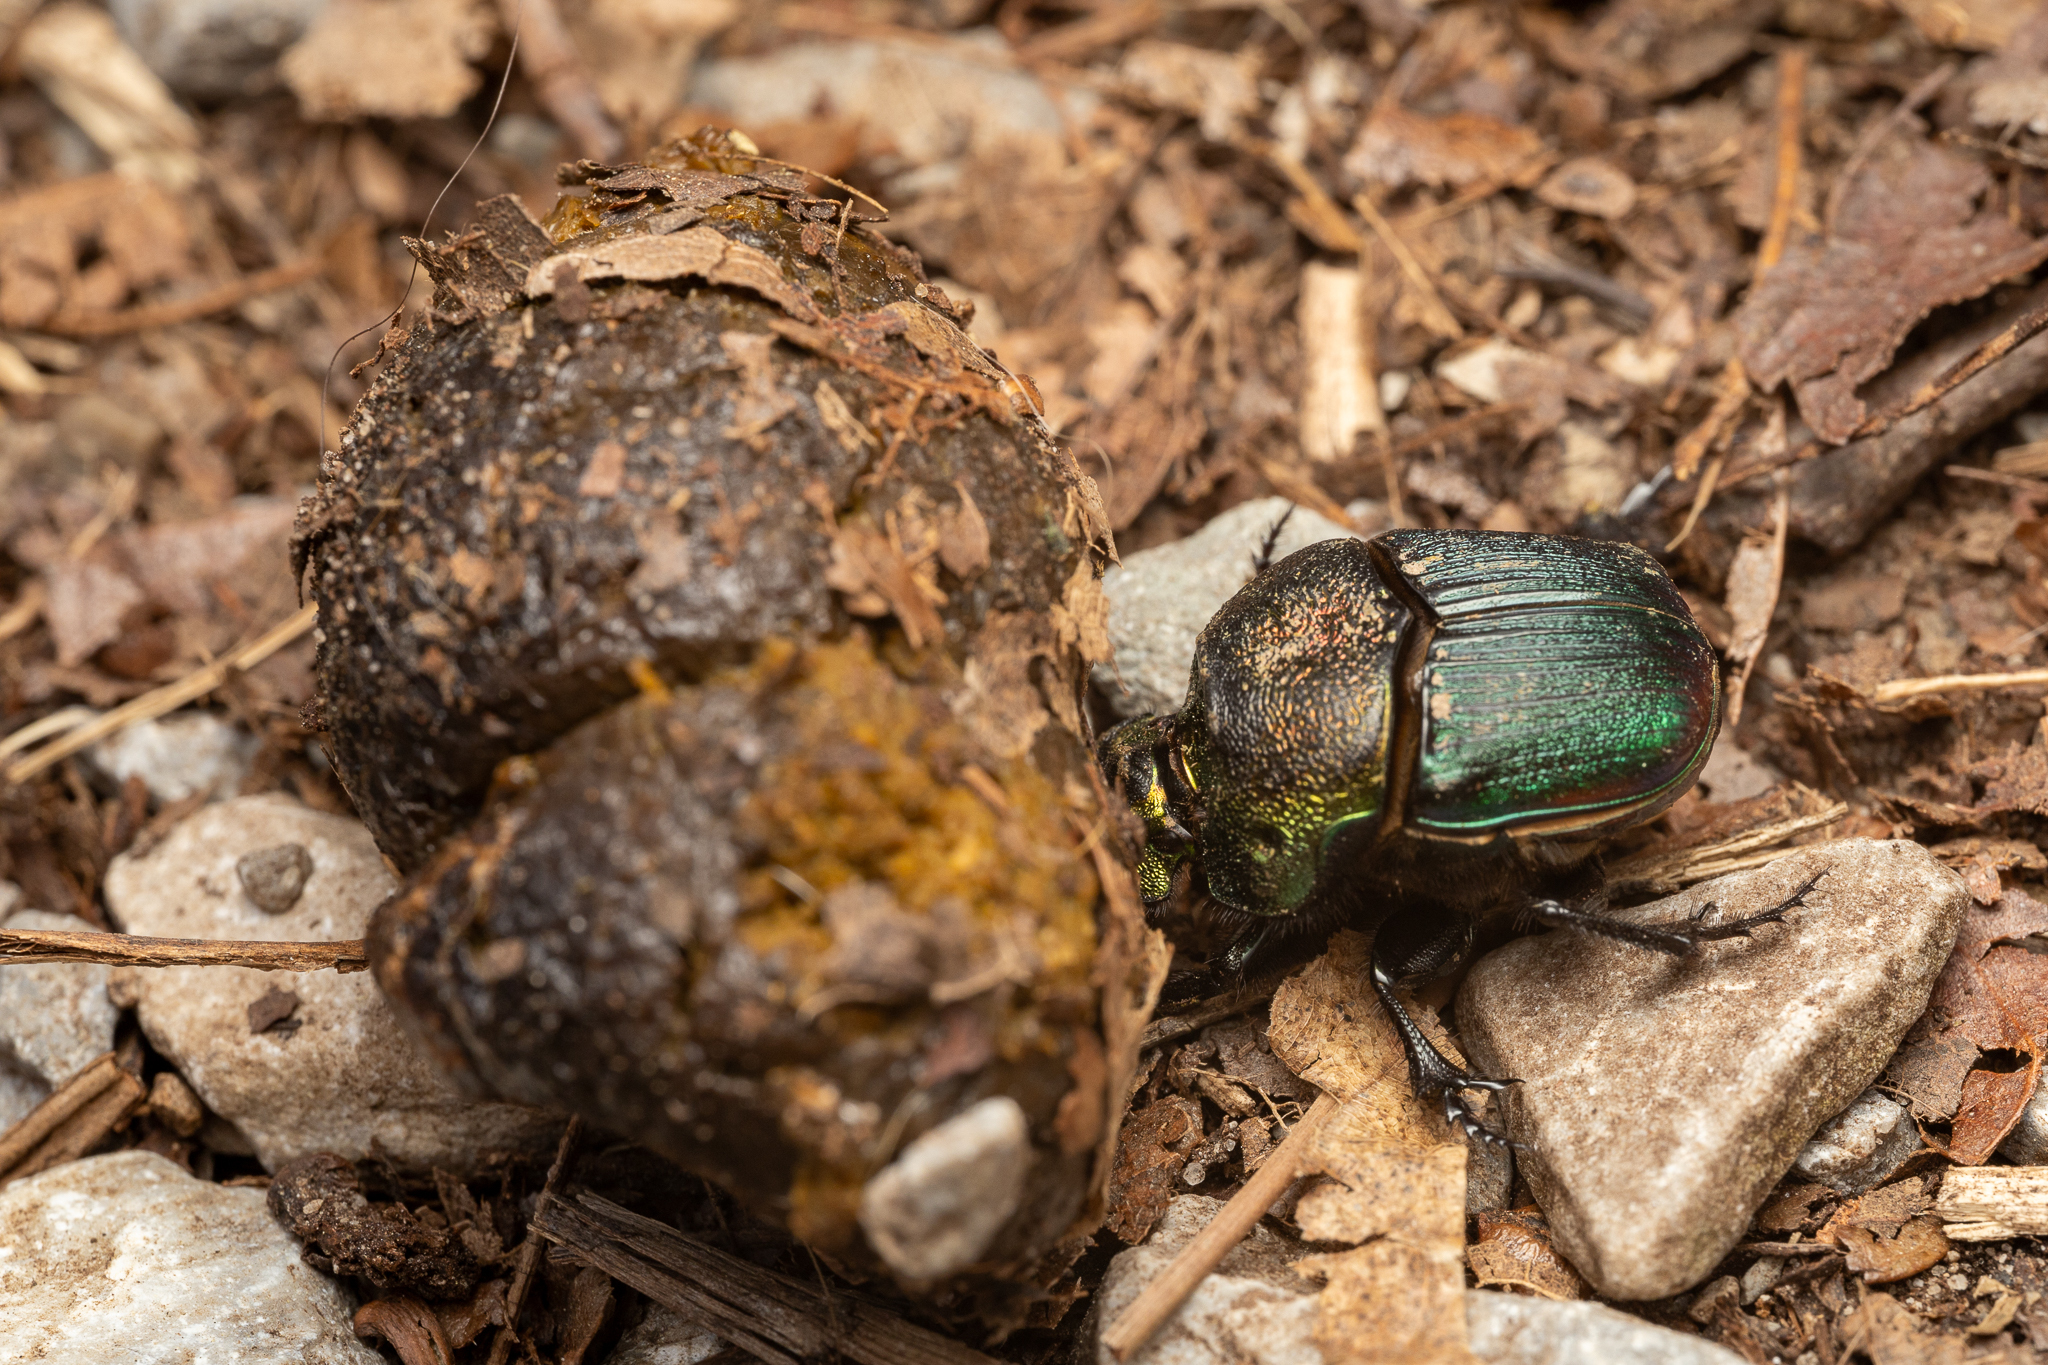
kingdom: Animalia
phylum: Arthropoda
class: Insecta
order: Coleoptera
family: Scarabaeidae
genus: Phanaeus
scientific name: Phanaeus vindex
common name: Rainbow scarab
